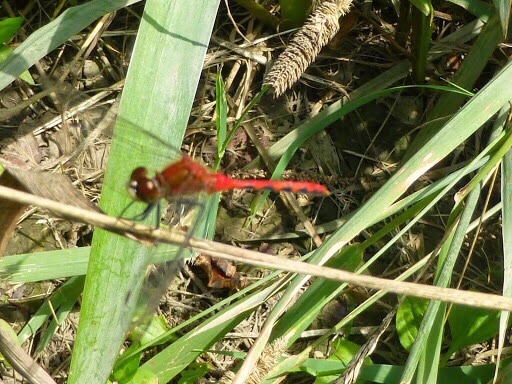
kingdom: Animalia
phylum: Arthropoda
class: Insecta
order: Odonata
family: Libellulidae
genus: Sympetrum
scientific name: Sympetrum obtrusum
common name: White-faced meadowhawk
